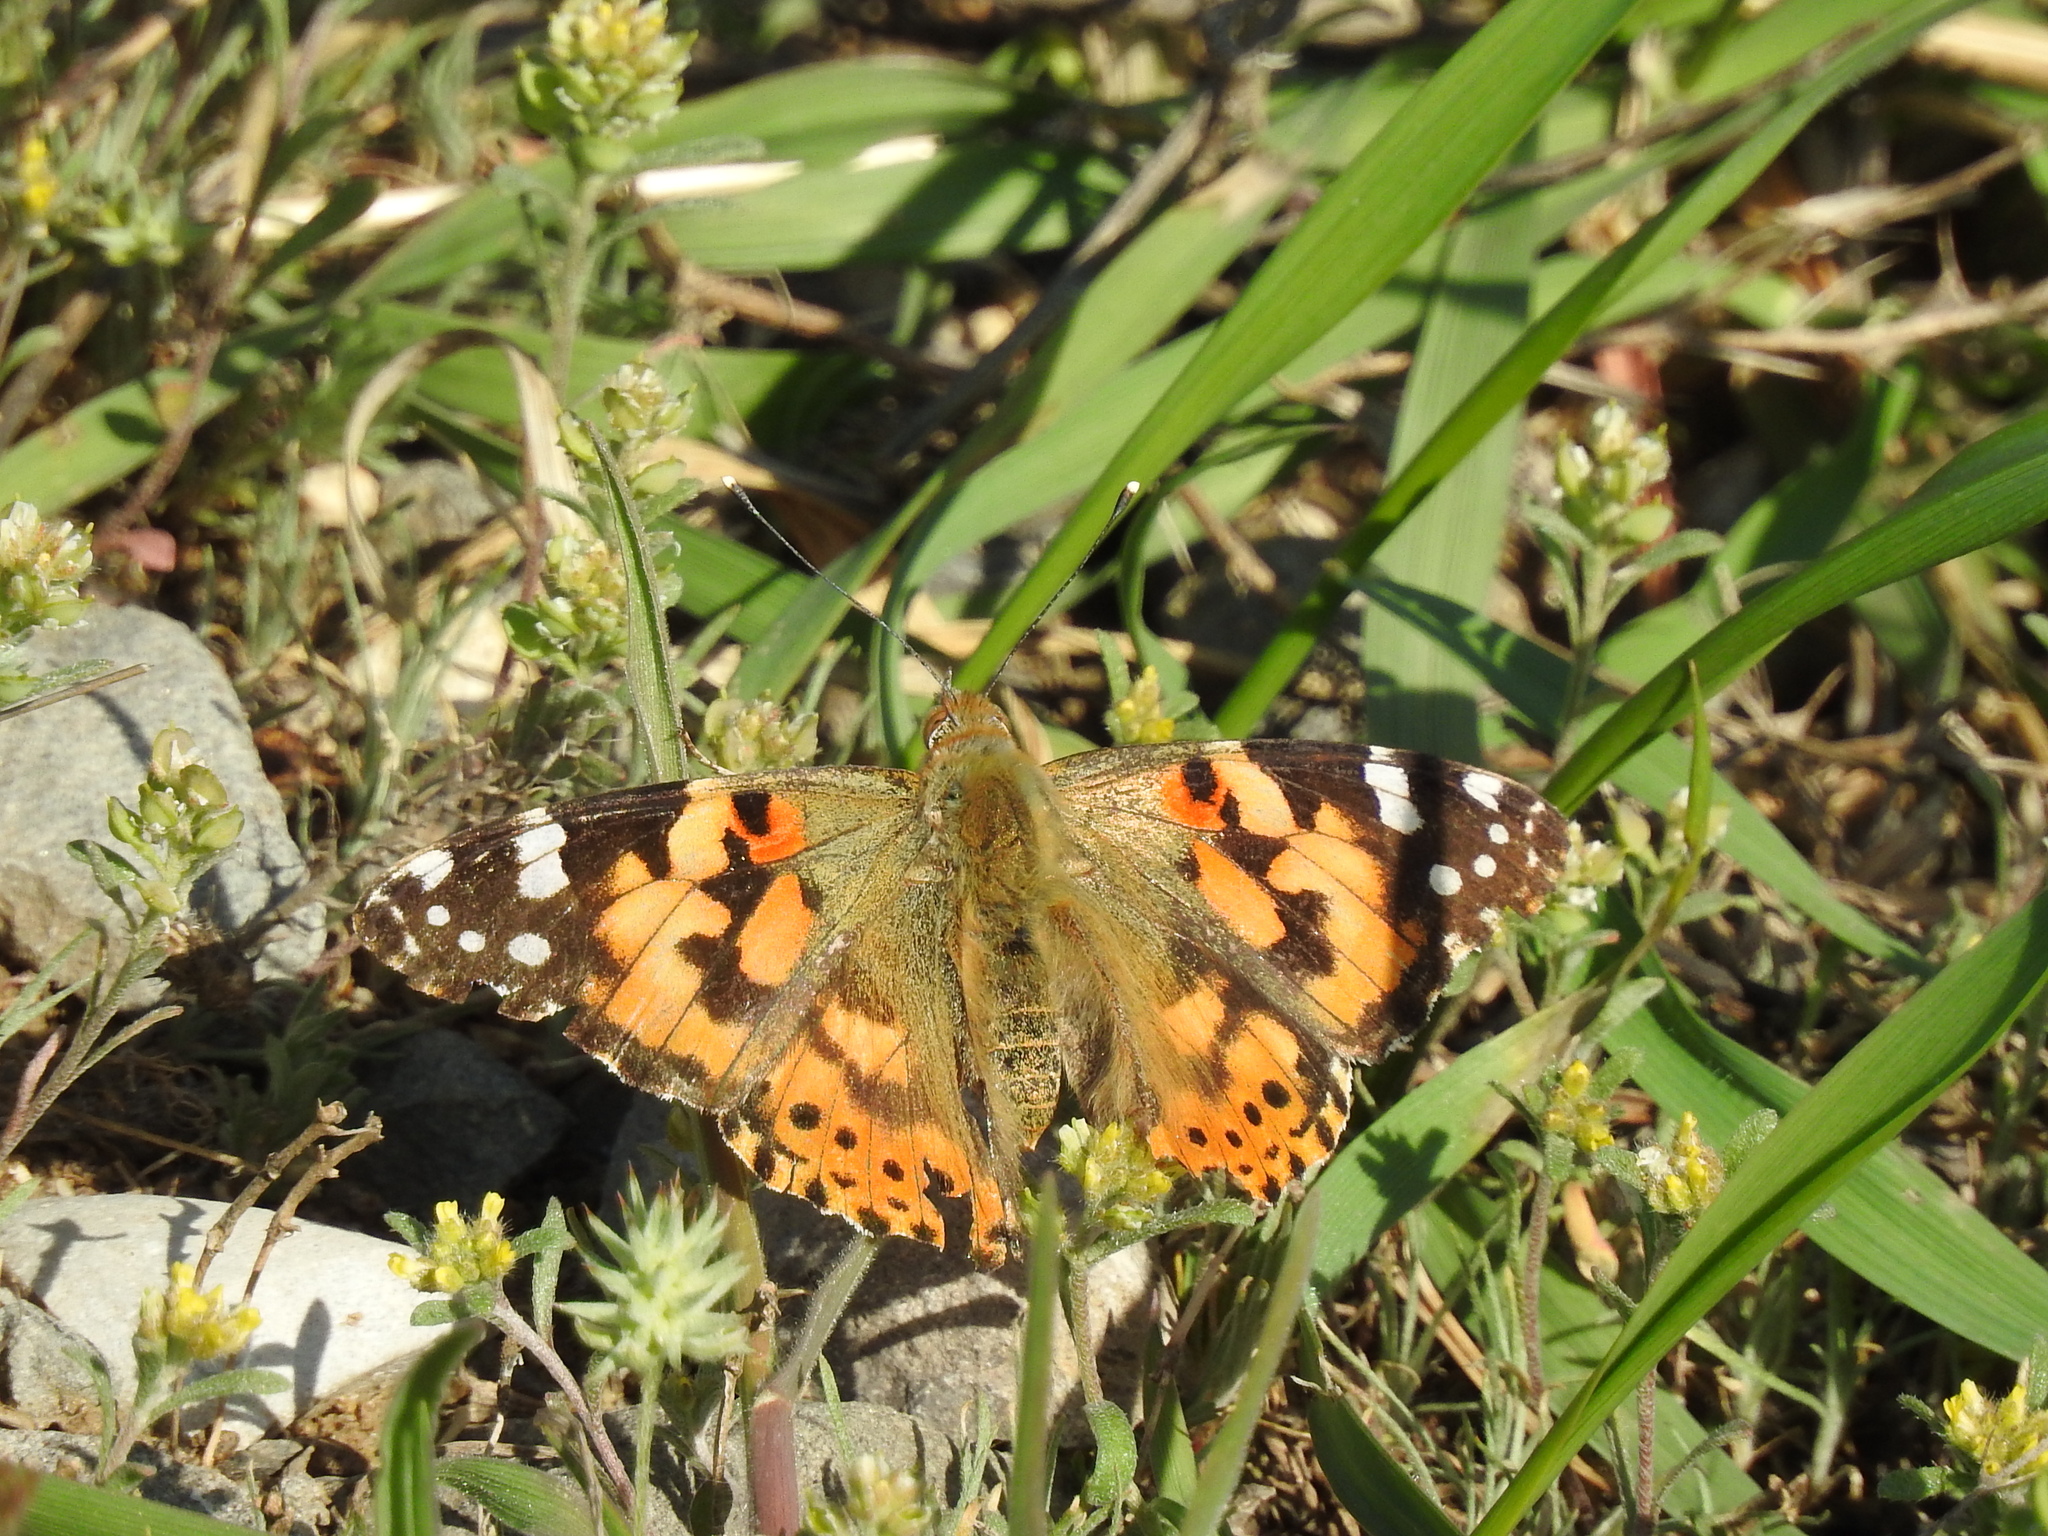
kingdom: Animalia
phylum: Arthropoda
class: Insecta
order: Lepidoptera
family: Nymphalidae
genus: Vanessa
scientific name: Vanessa cardui
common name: Painted lady
